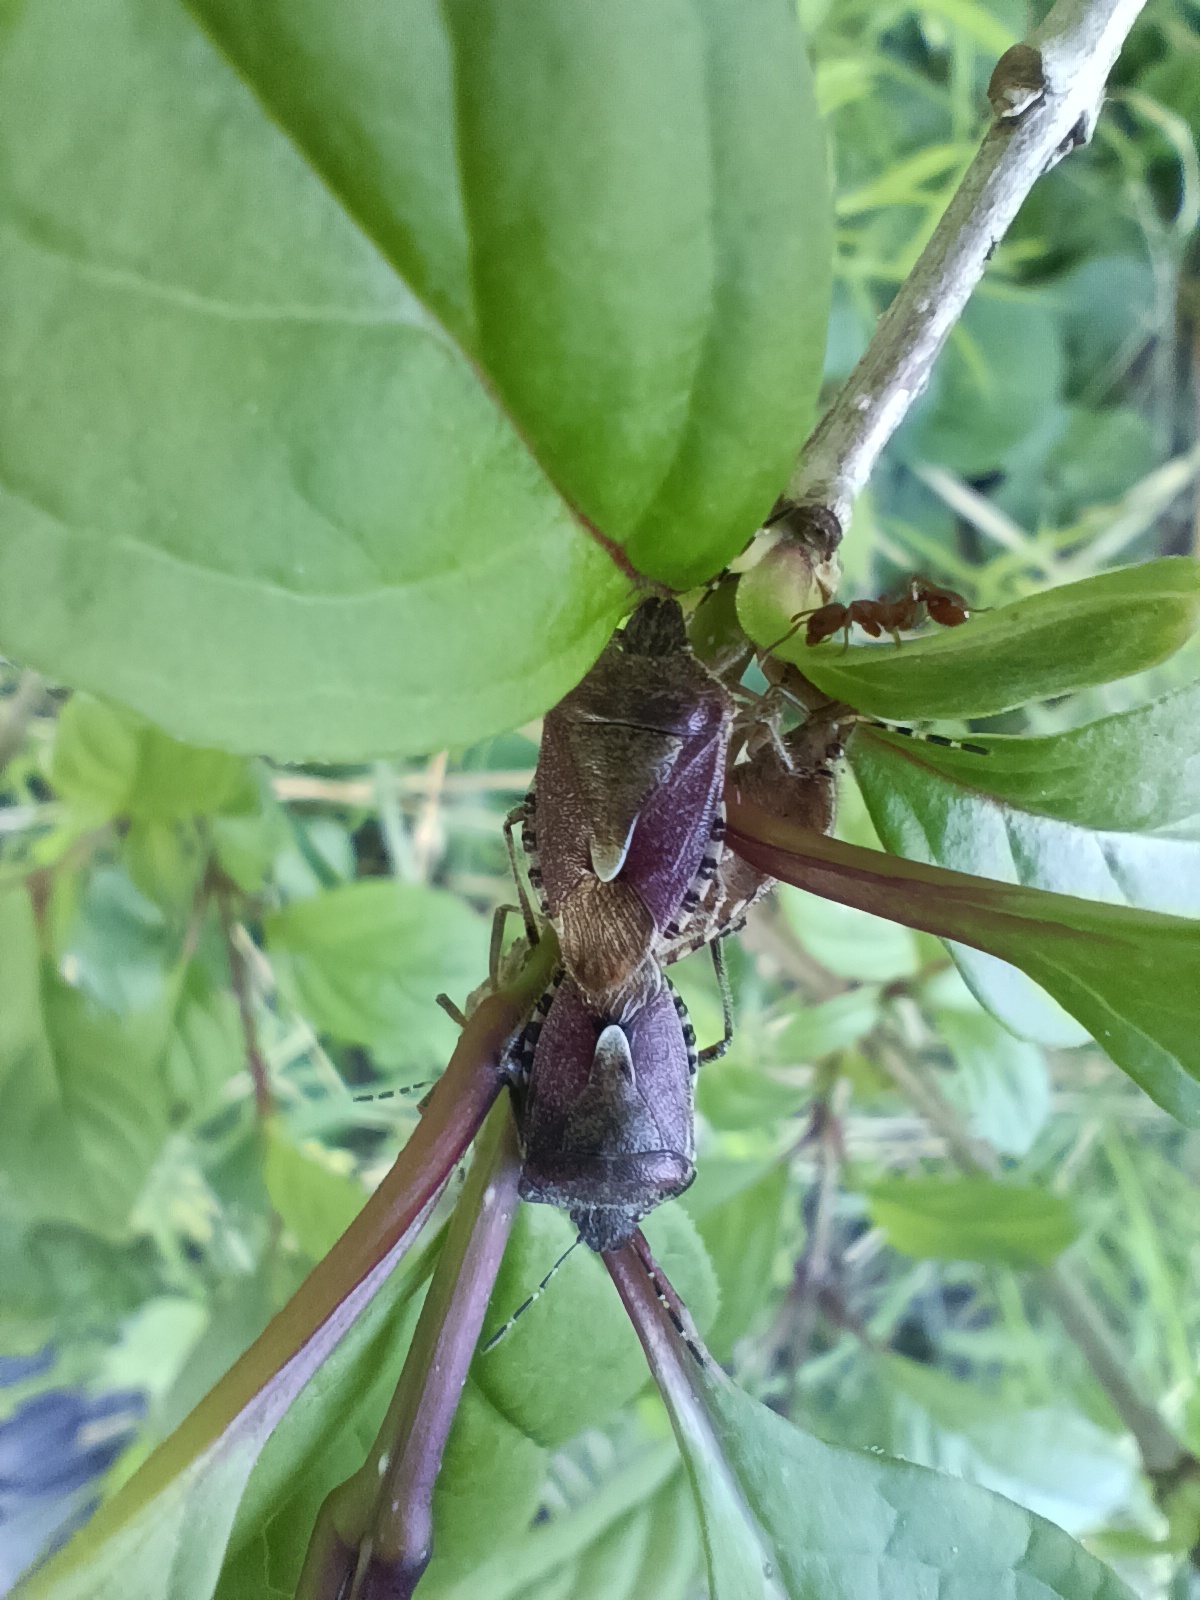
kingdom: Animalia
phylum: Arthropoda
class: Insecta
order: Hemiptera
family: Pentatomidae
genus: Dolycoris
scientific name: Dolycoris baccarum
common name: Sloe bug
